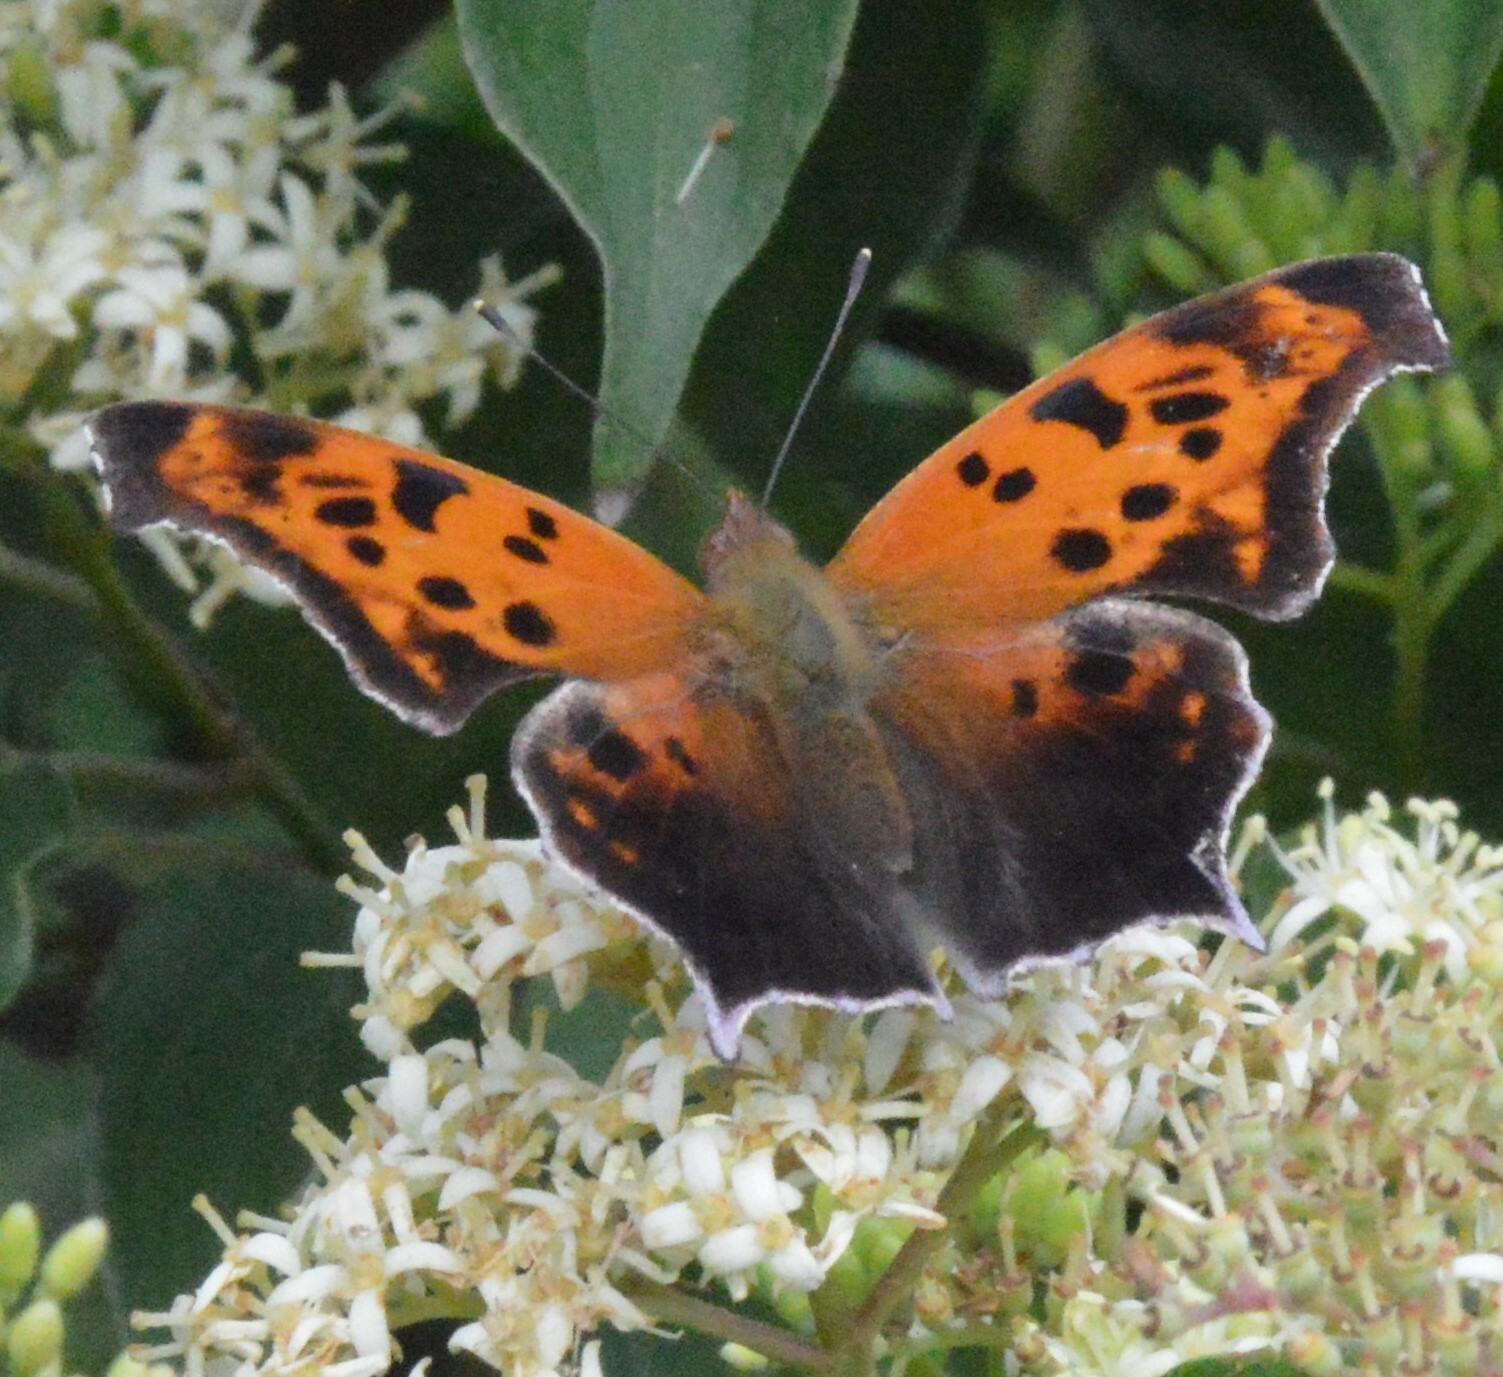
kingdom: Animalia
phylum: Arthropoda
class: Insecta
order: Lepidoptera
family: Nymphalidae
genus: Polygonia
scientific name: Polygonia interrogationis
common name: Question mark
